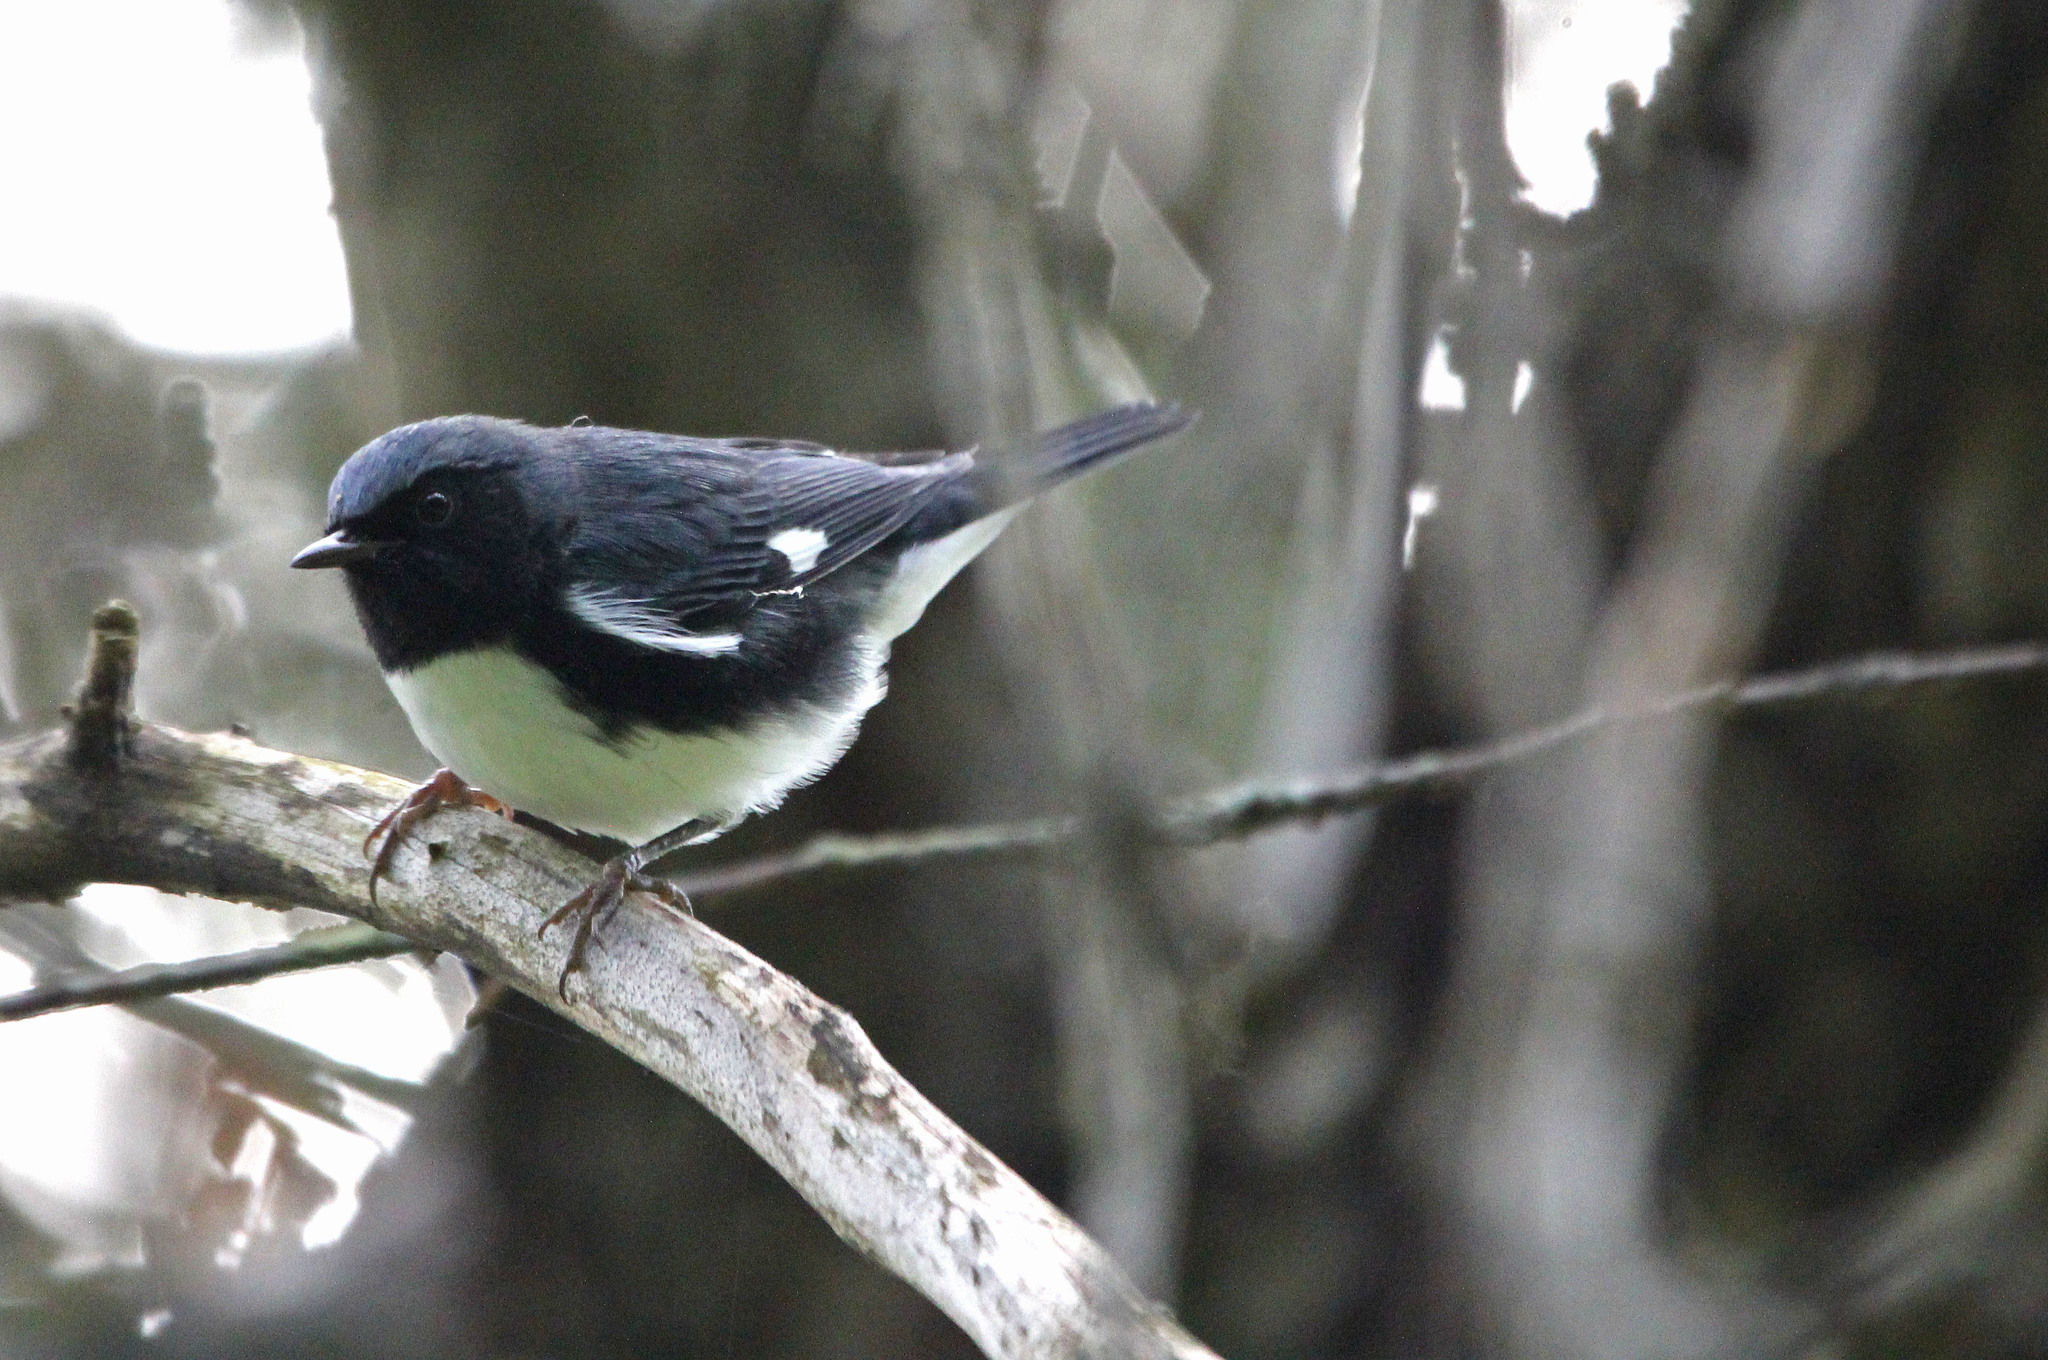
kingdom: Animalia
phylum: Chordata
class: Aves
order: Passeriformes
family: Parulidae
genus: Setophaga
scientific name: Setophaga caerulescens
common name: Black-throated blue warbler
